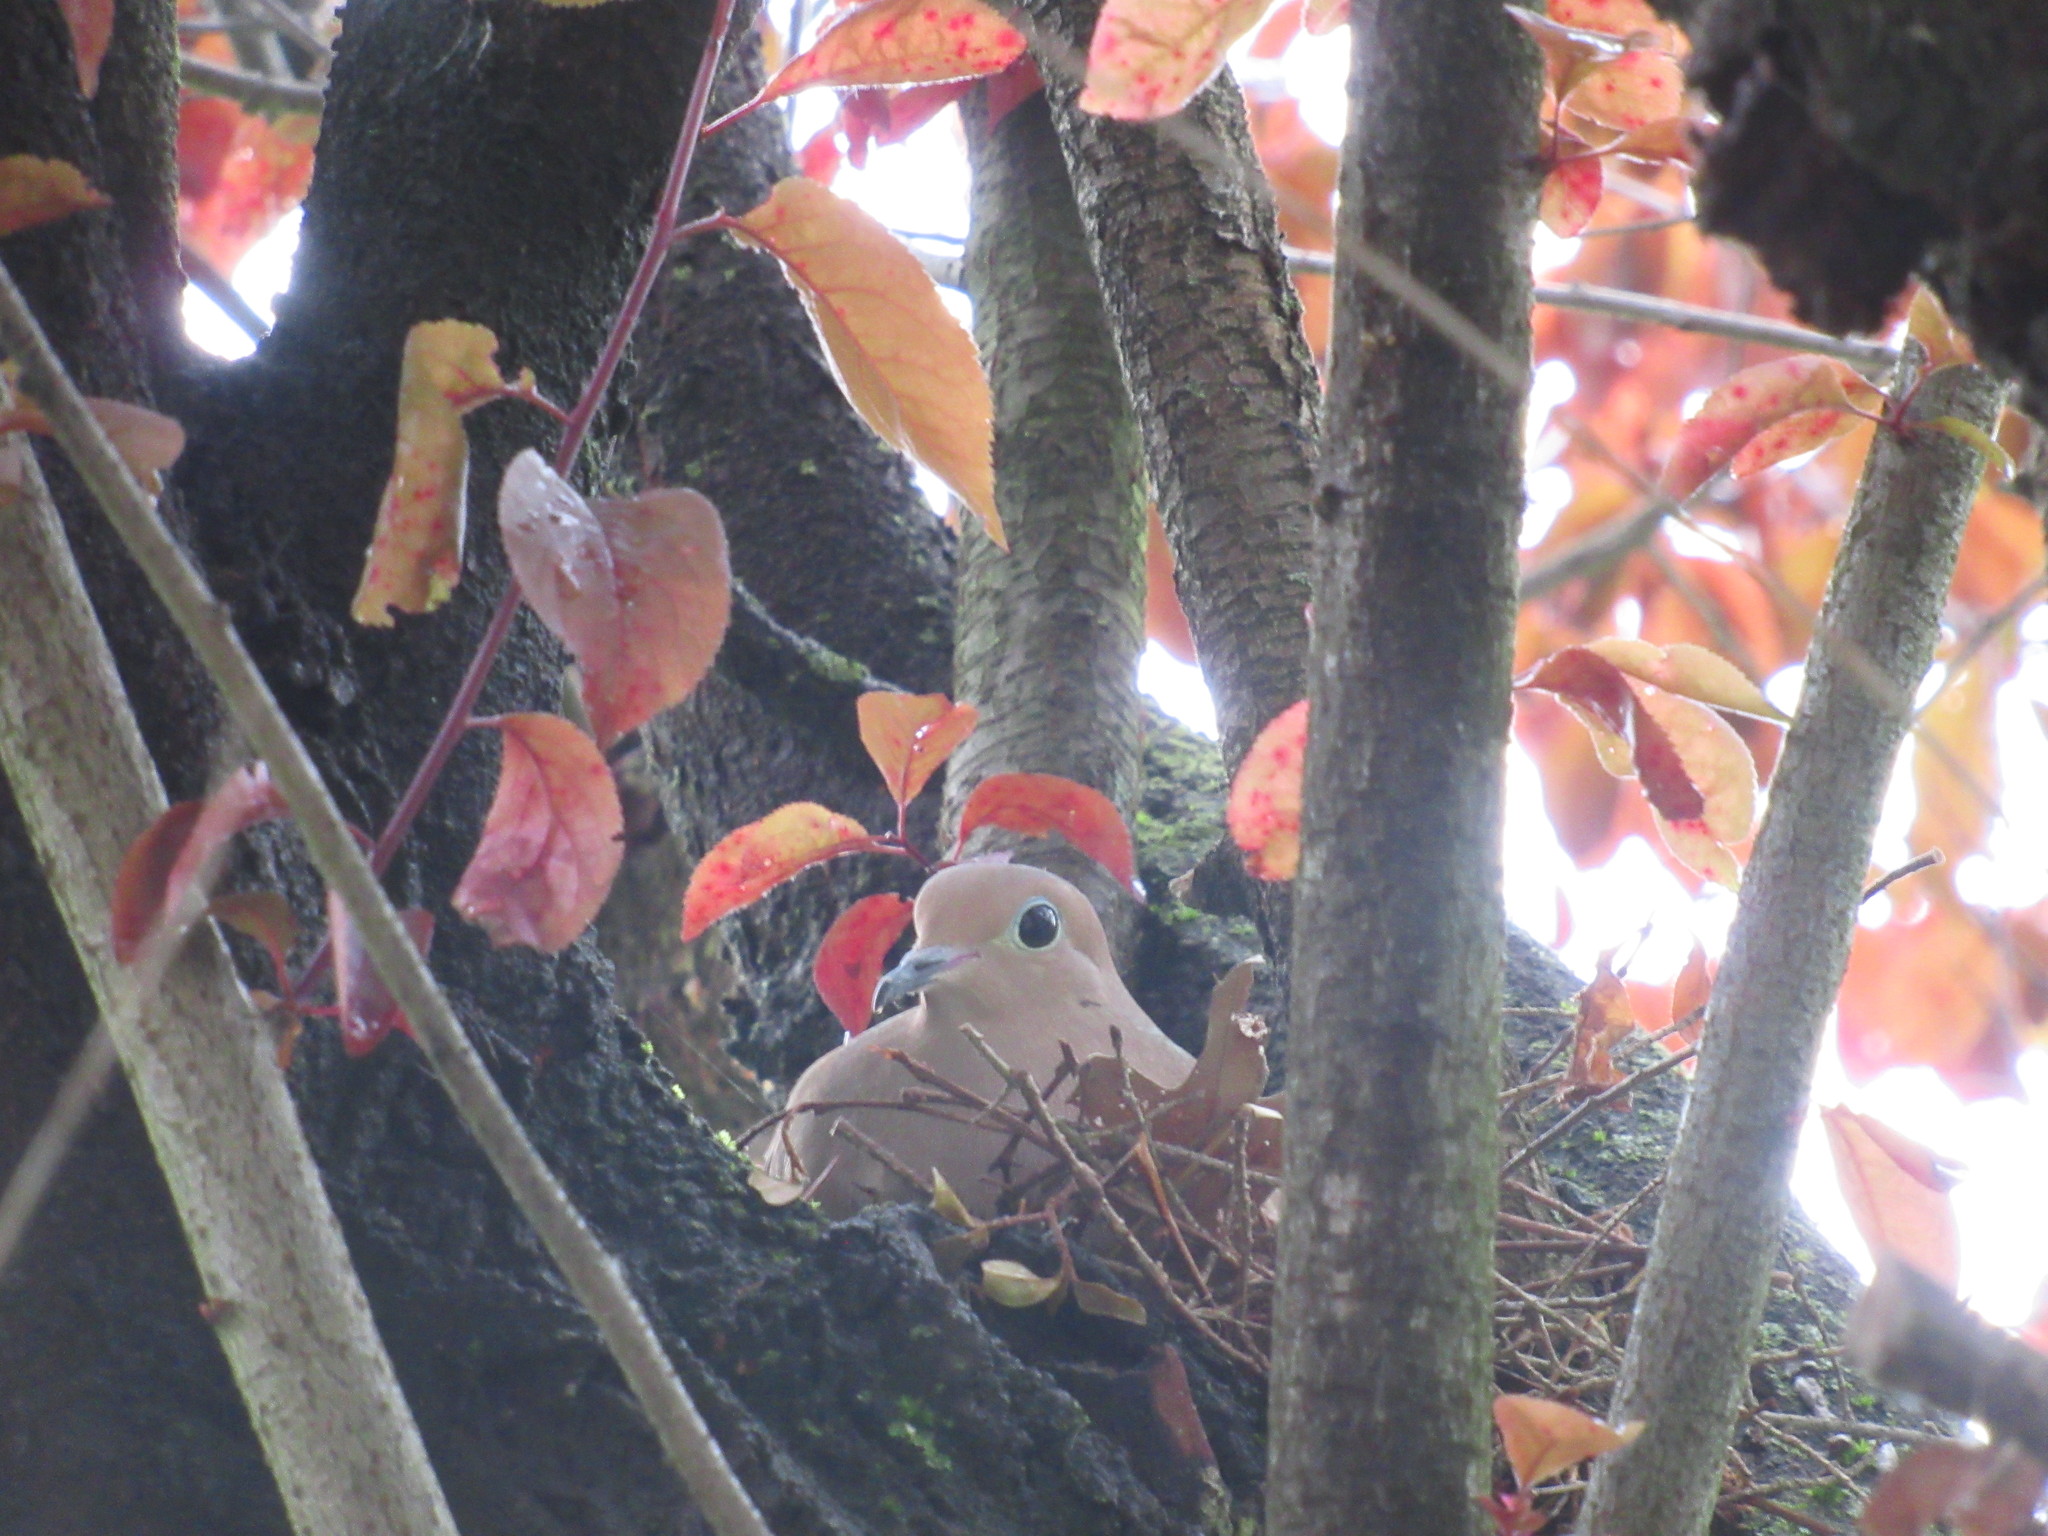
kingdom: Animalia
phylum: Chordata
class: Aves
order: Columbiformes
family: Columbidae
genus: Zenaida
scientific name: Zenaida macroura
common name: Mourning dove
